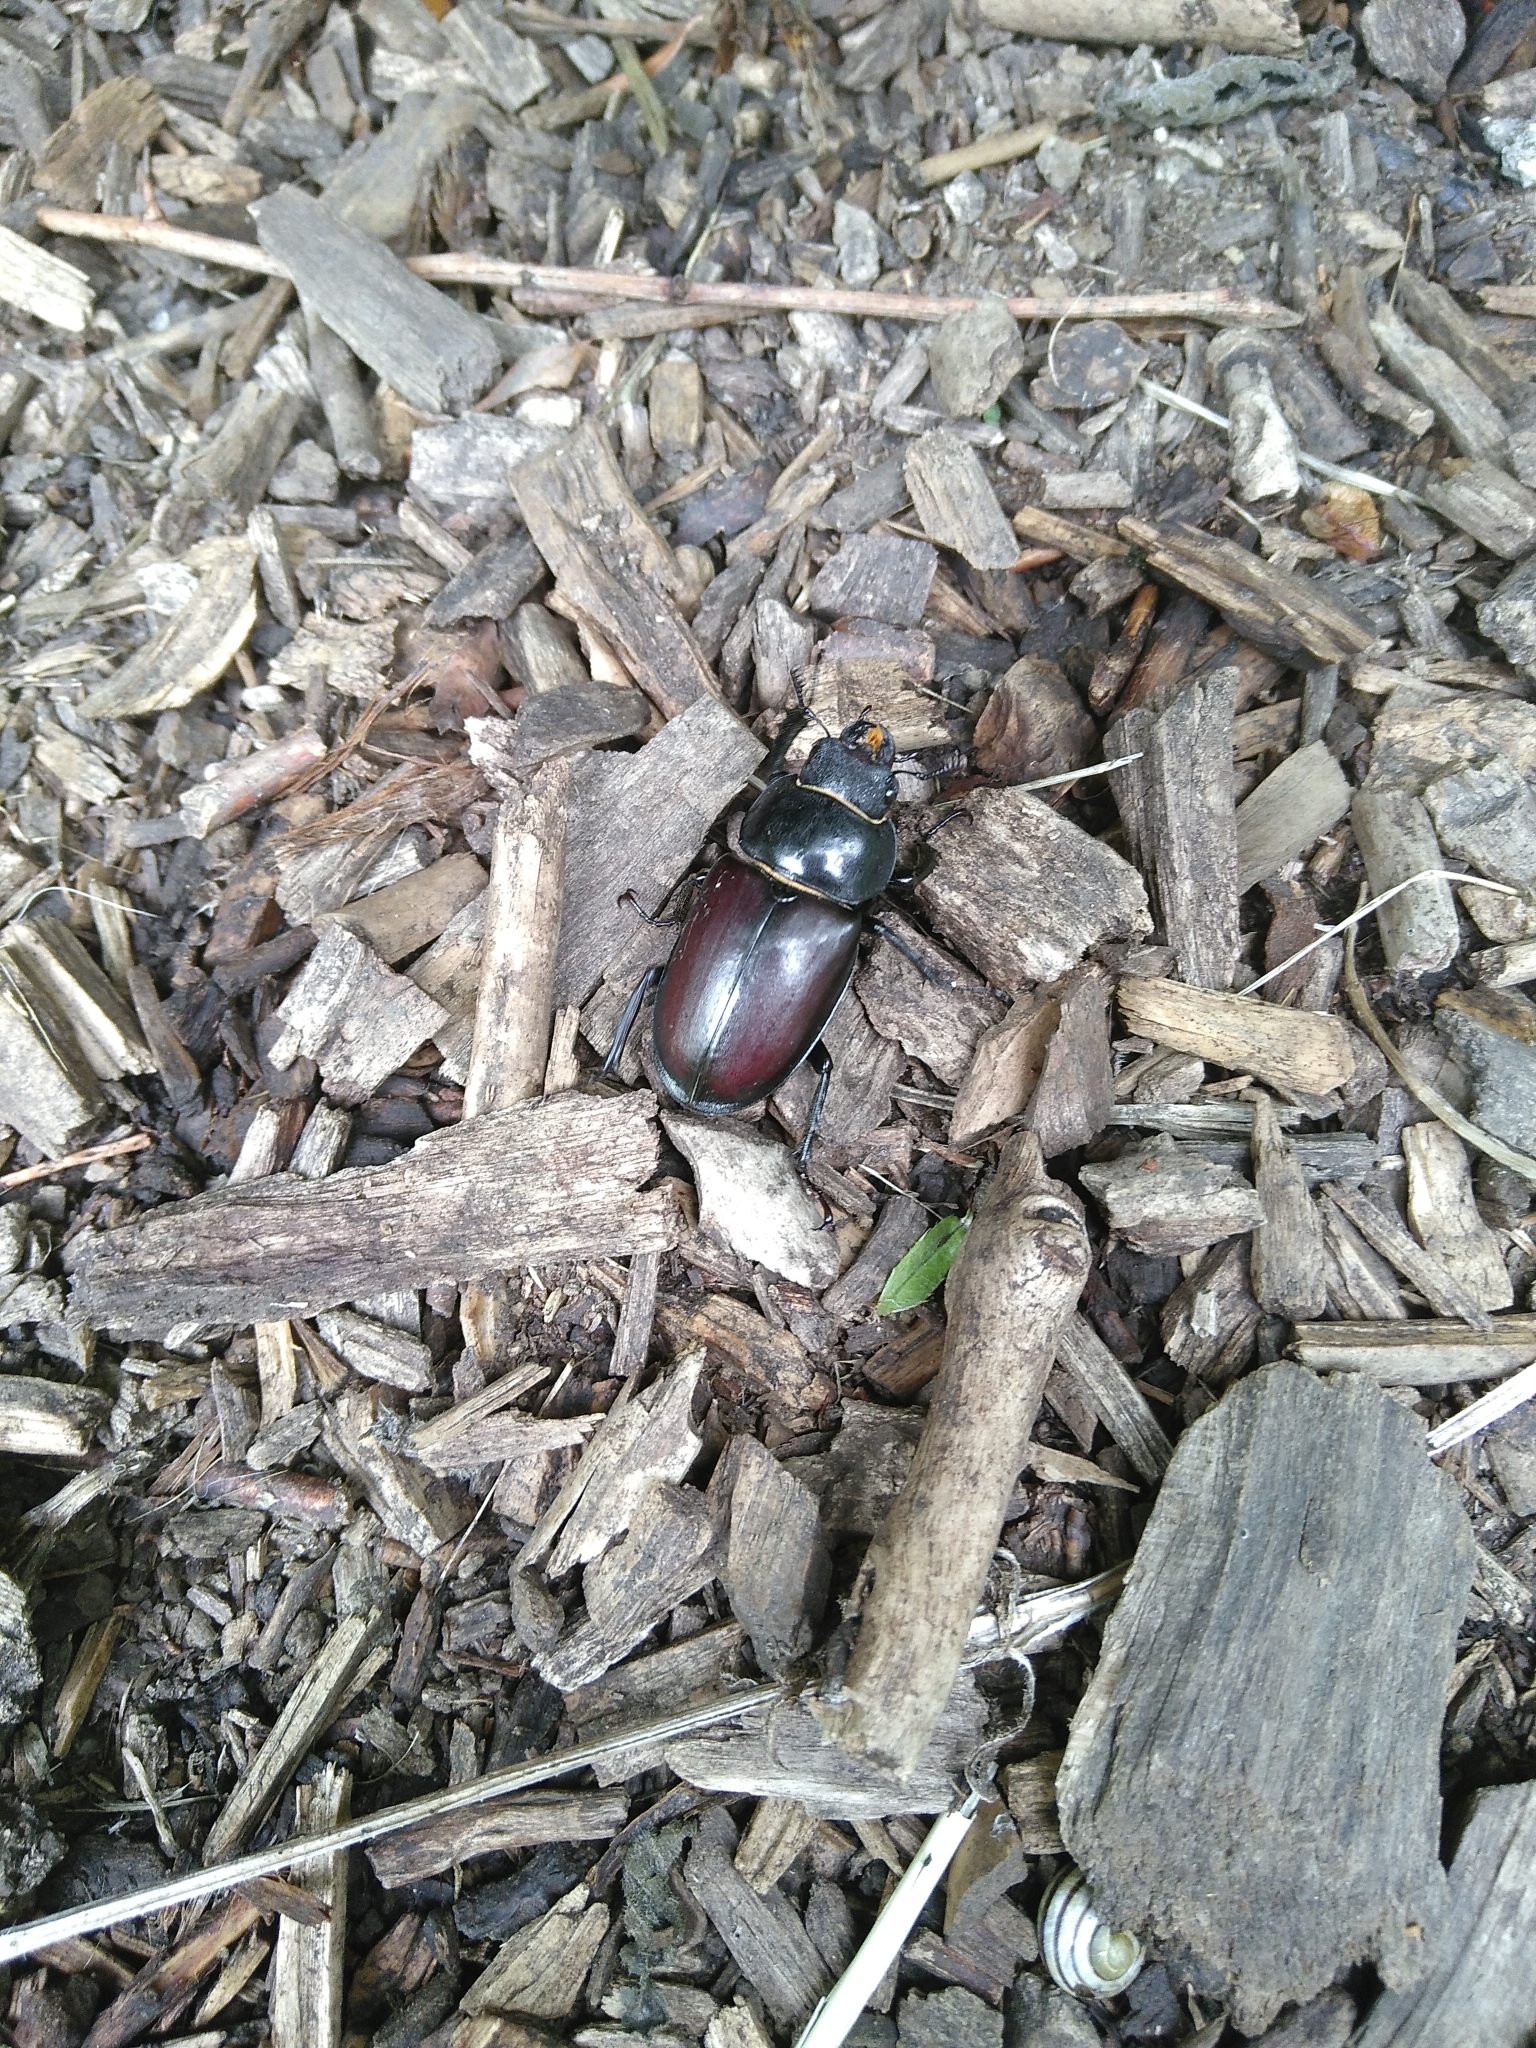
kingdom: Animalia
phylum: Arthropoda
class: Insecta
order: Coleoptera
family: Lucanidae
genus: Lucanus
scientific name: Lucanus cervus
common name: Stag beetle
